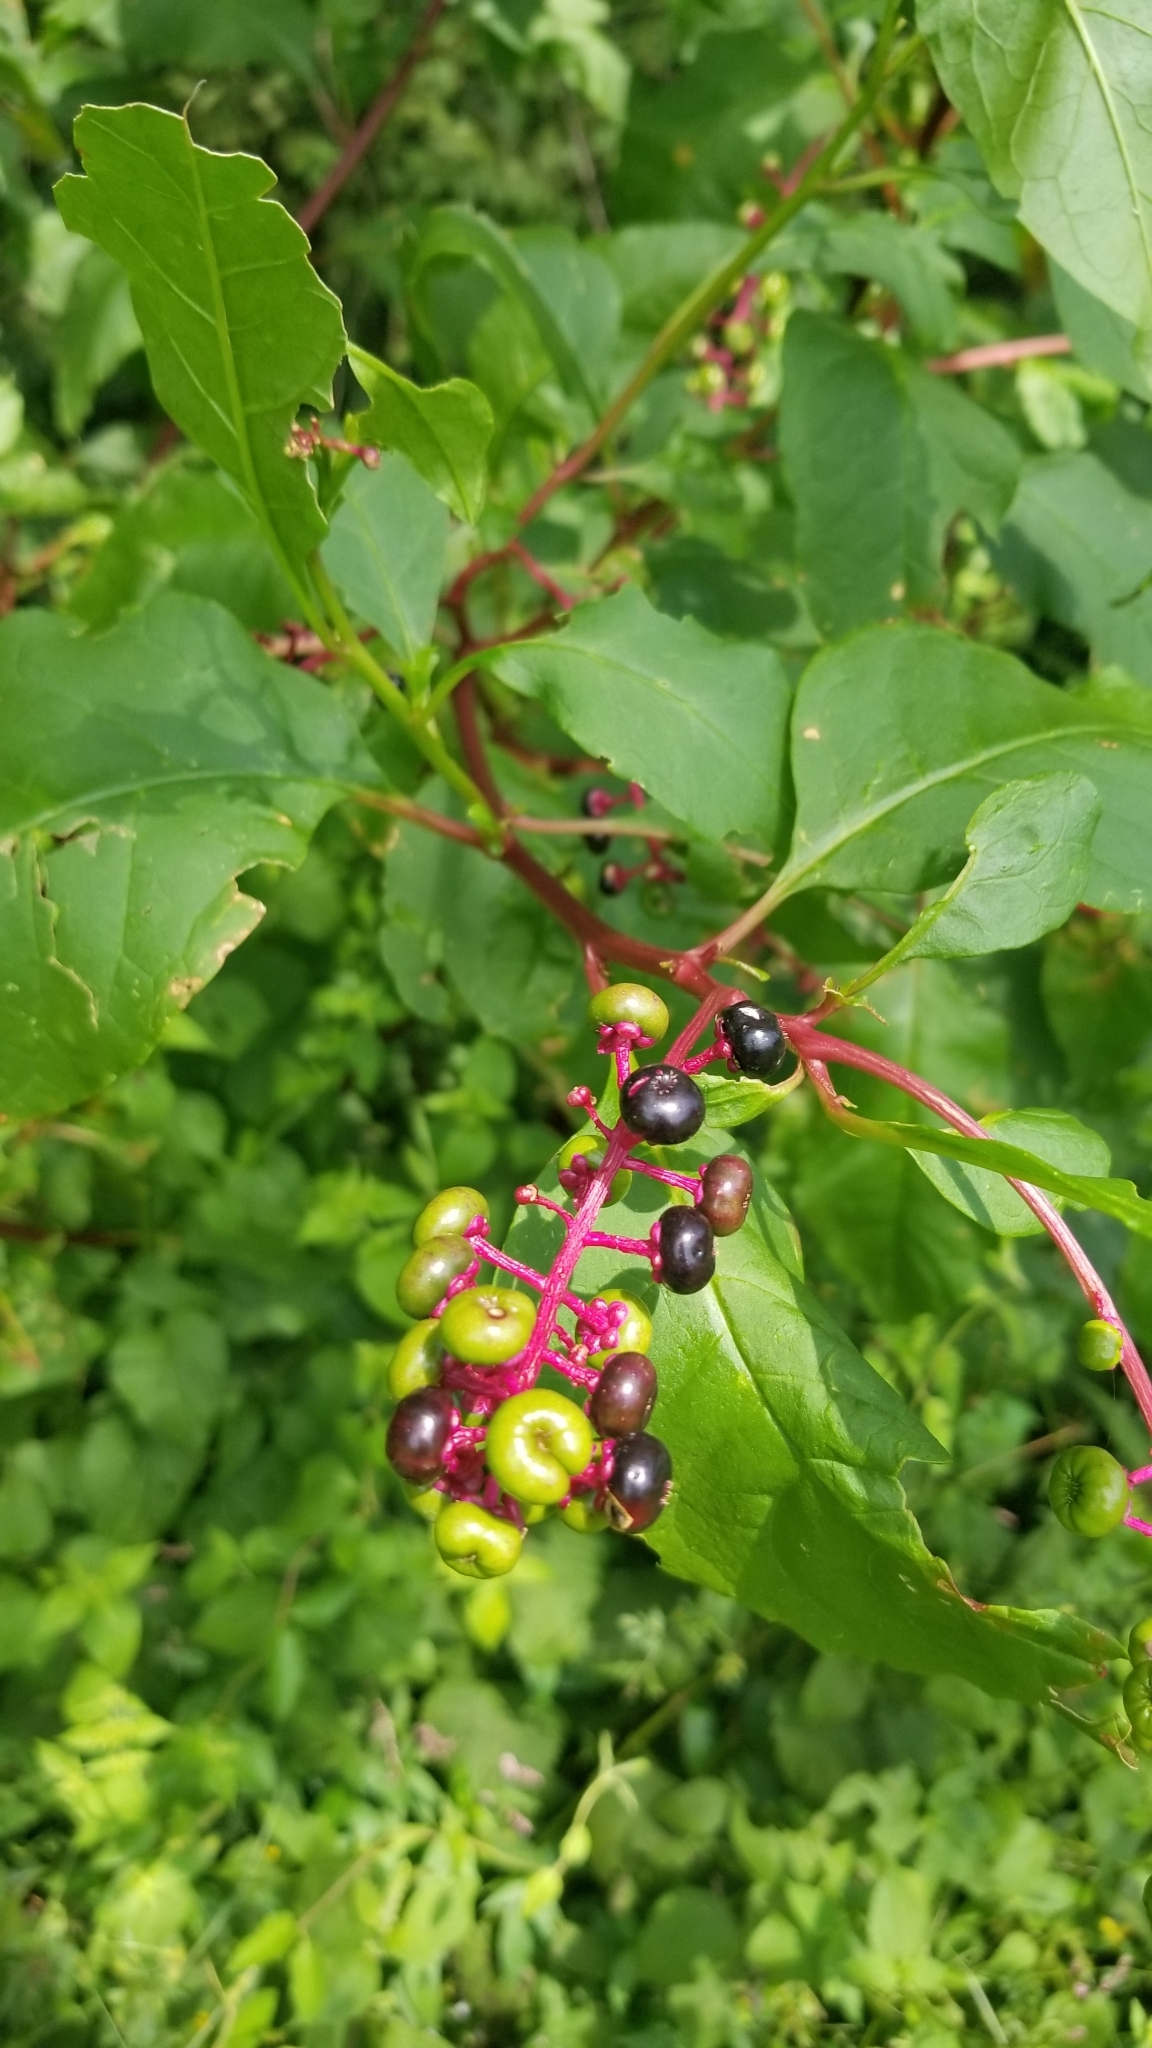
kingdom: Plantae
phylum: Tracheophyta
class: Magnoliopsida
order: Caryophyllales
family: Phytolaccaceae
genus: Phytolacca
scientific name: Phytolacca americana
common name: American pokeweed
